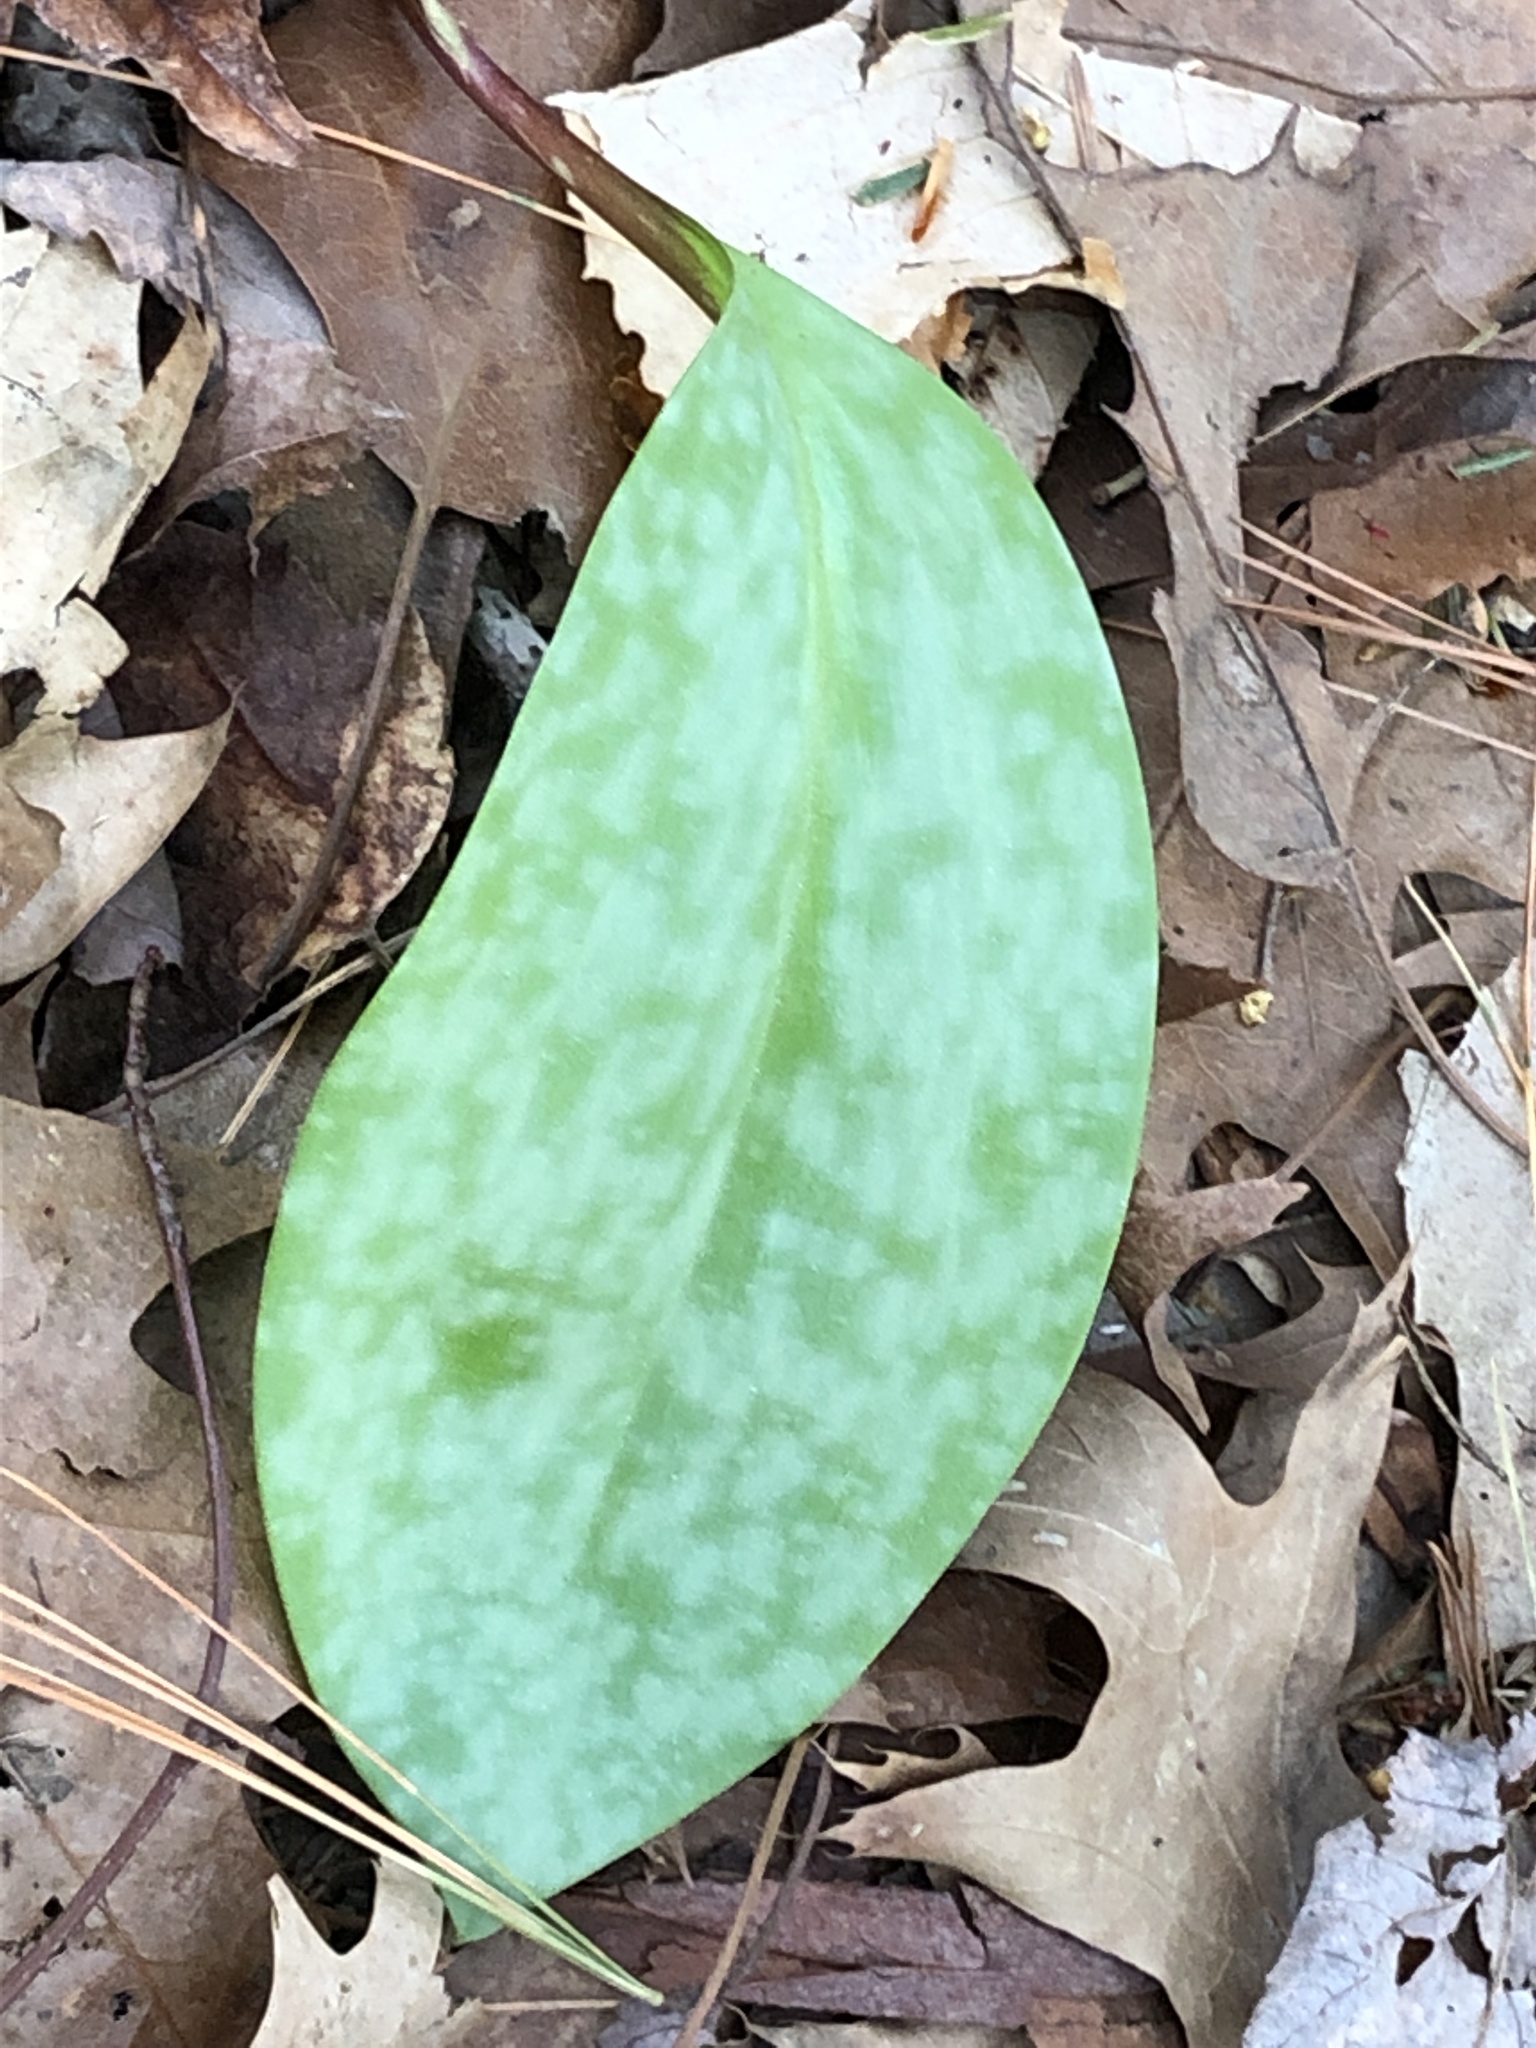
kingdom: Plantae
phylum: Tracheophyta
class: Liliopsida
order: Liliales
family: Liliaceae
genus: Erythronium
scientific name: Erythronium americanum
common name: Yellow adder's-tongue
